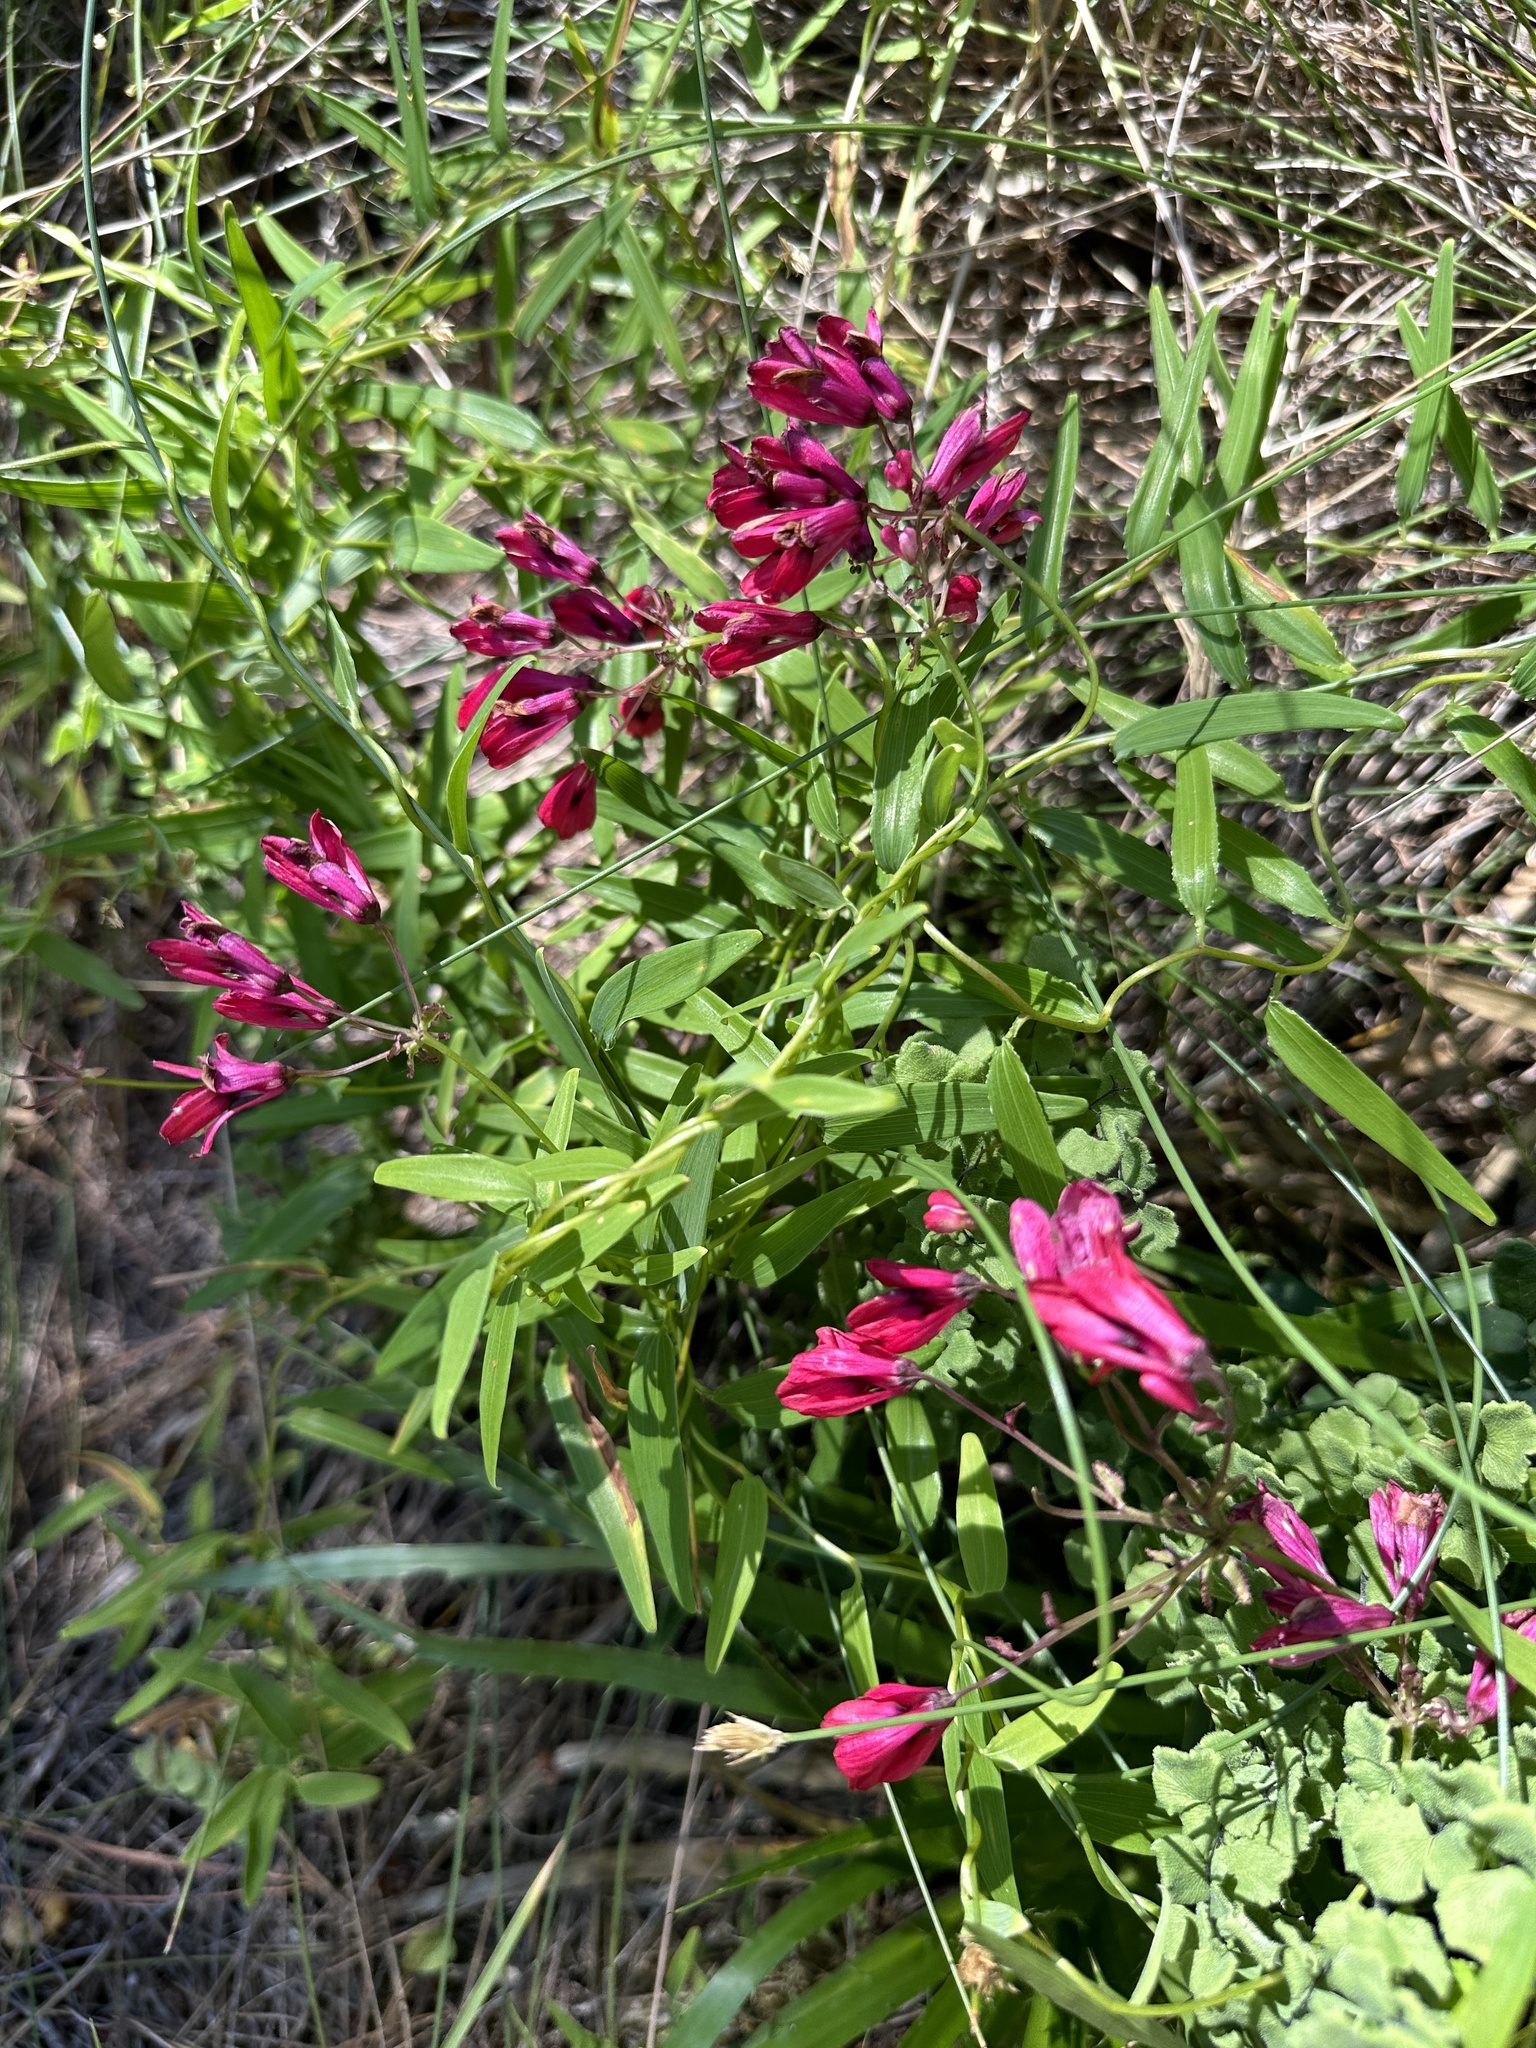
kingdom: Plantae
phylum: Tracheophyta
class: Liliopsida
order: Liliales
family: Alstroemeriaceae
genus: Bomarea
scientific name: Bomarea salsilla
